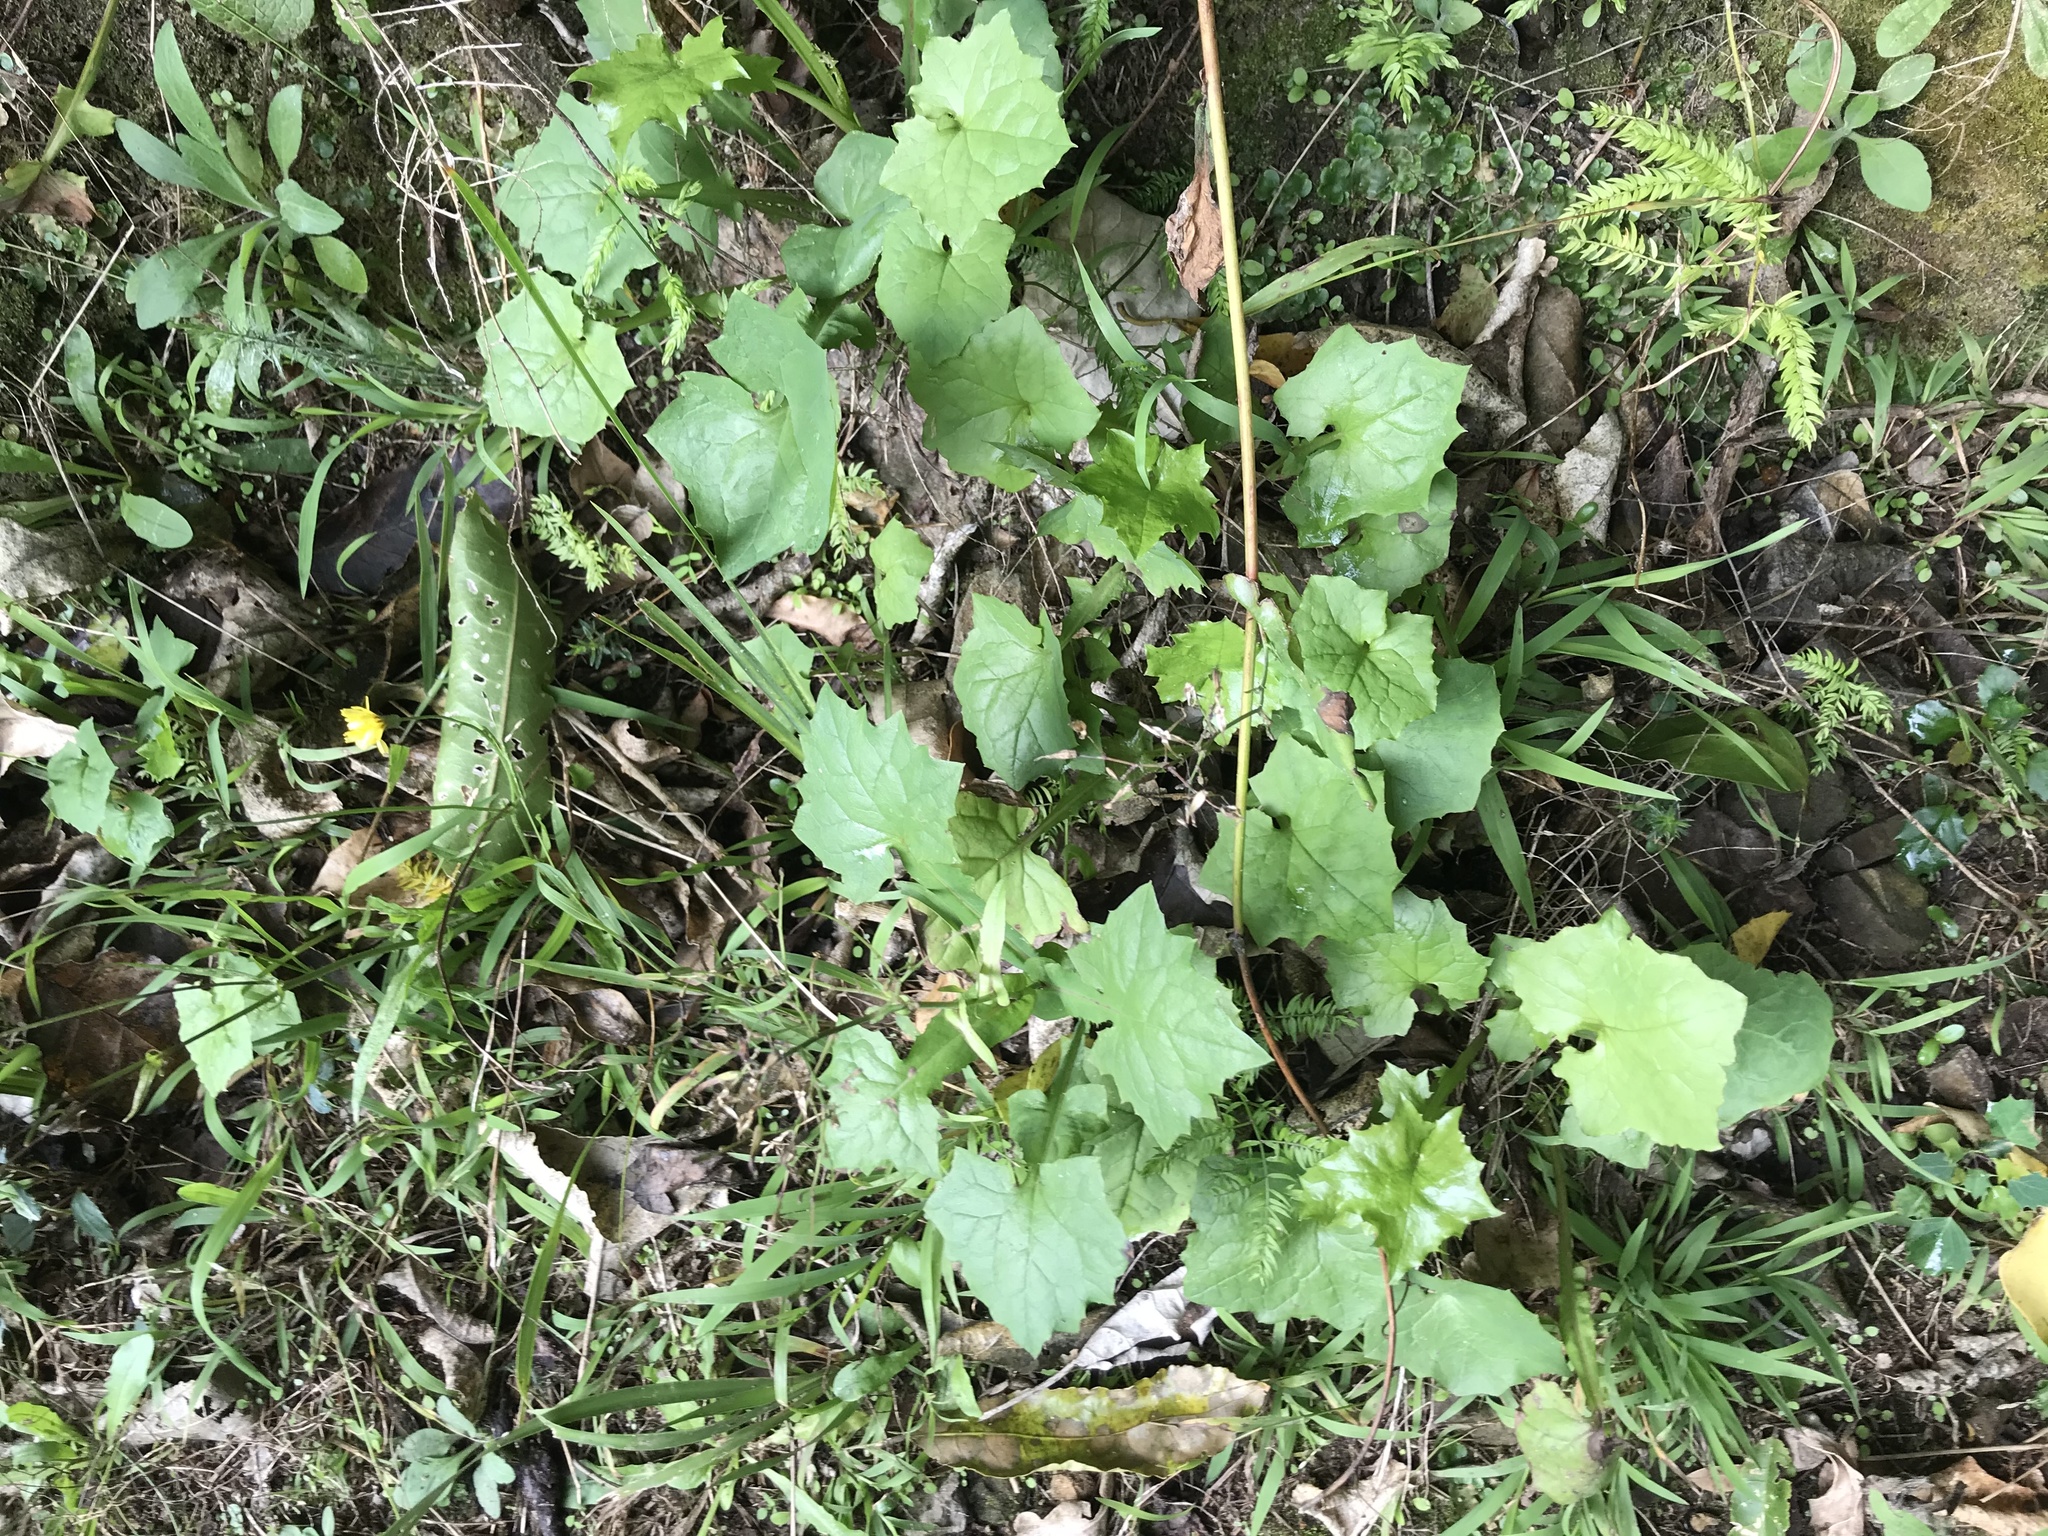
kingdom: Plantae
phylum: Tracheophyta
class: Magnoliopsida
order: Asterales
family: Asteraceae
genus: Mycelis
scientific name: Mycelis muralis
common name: Wall lettuce
